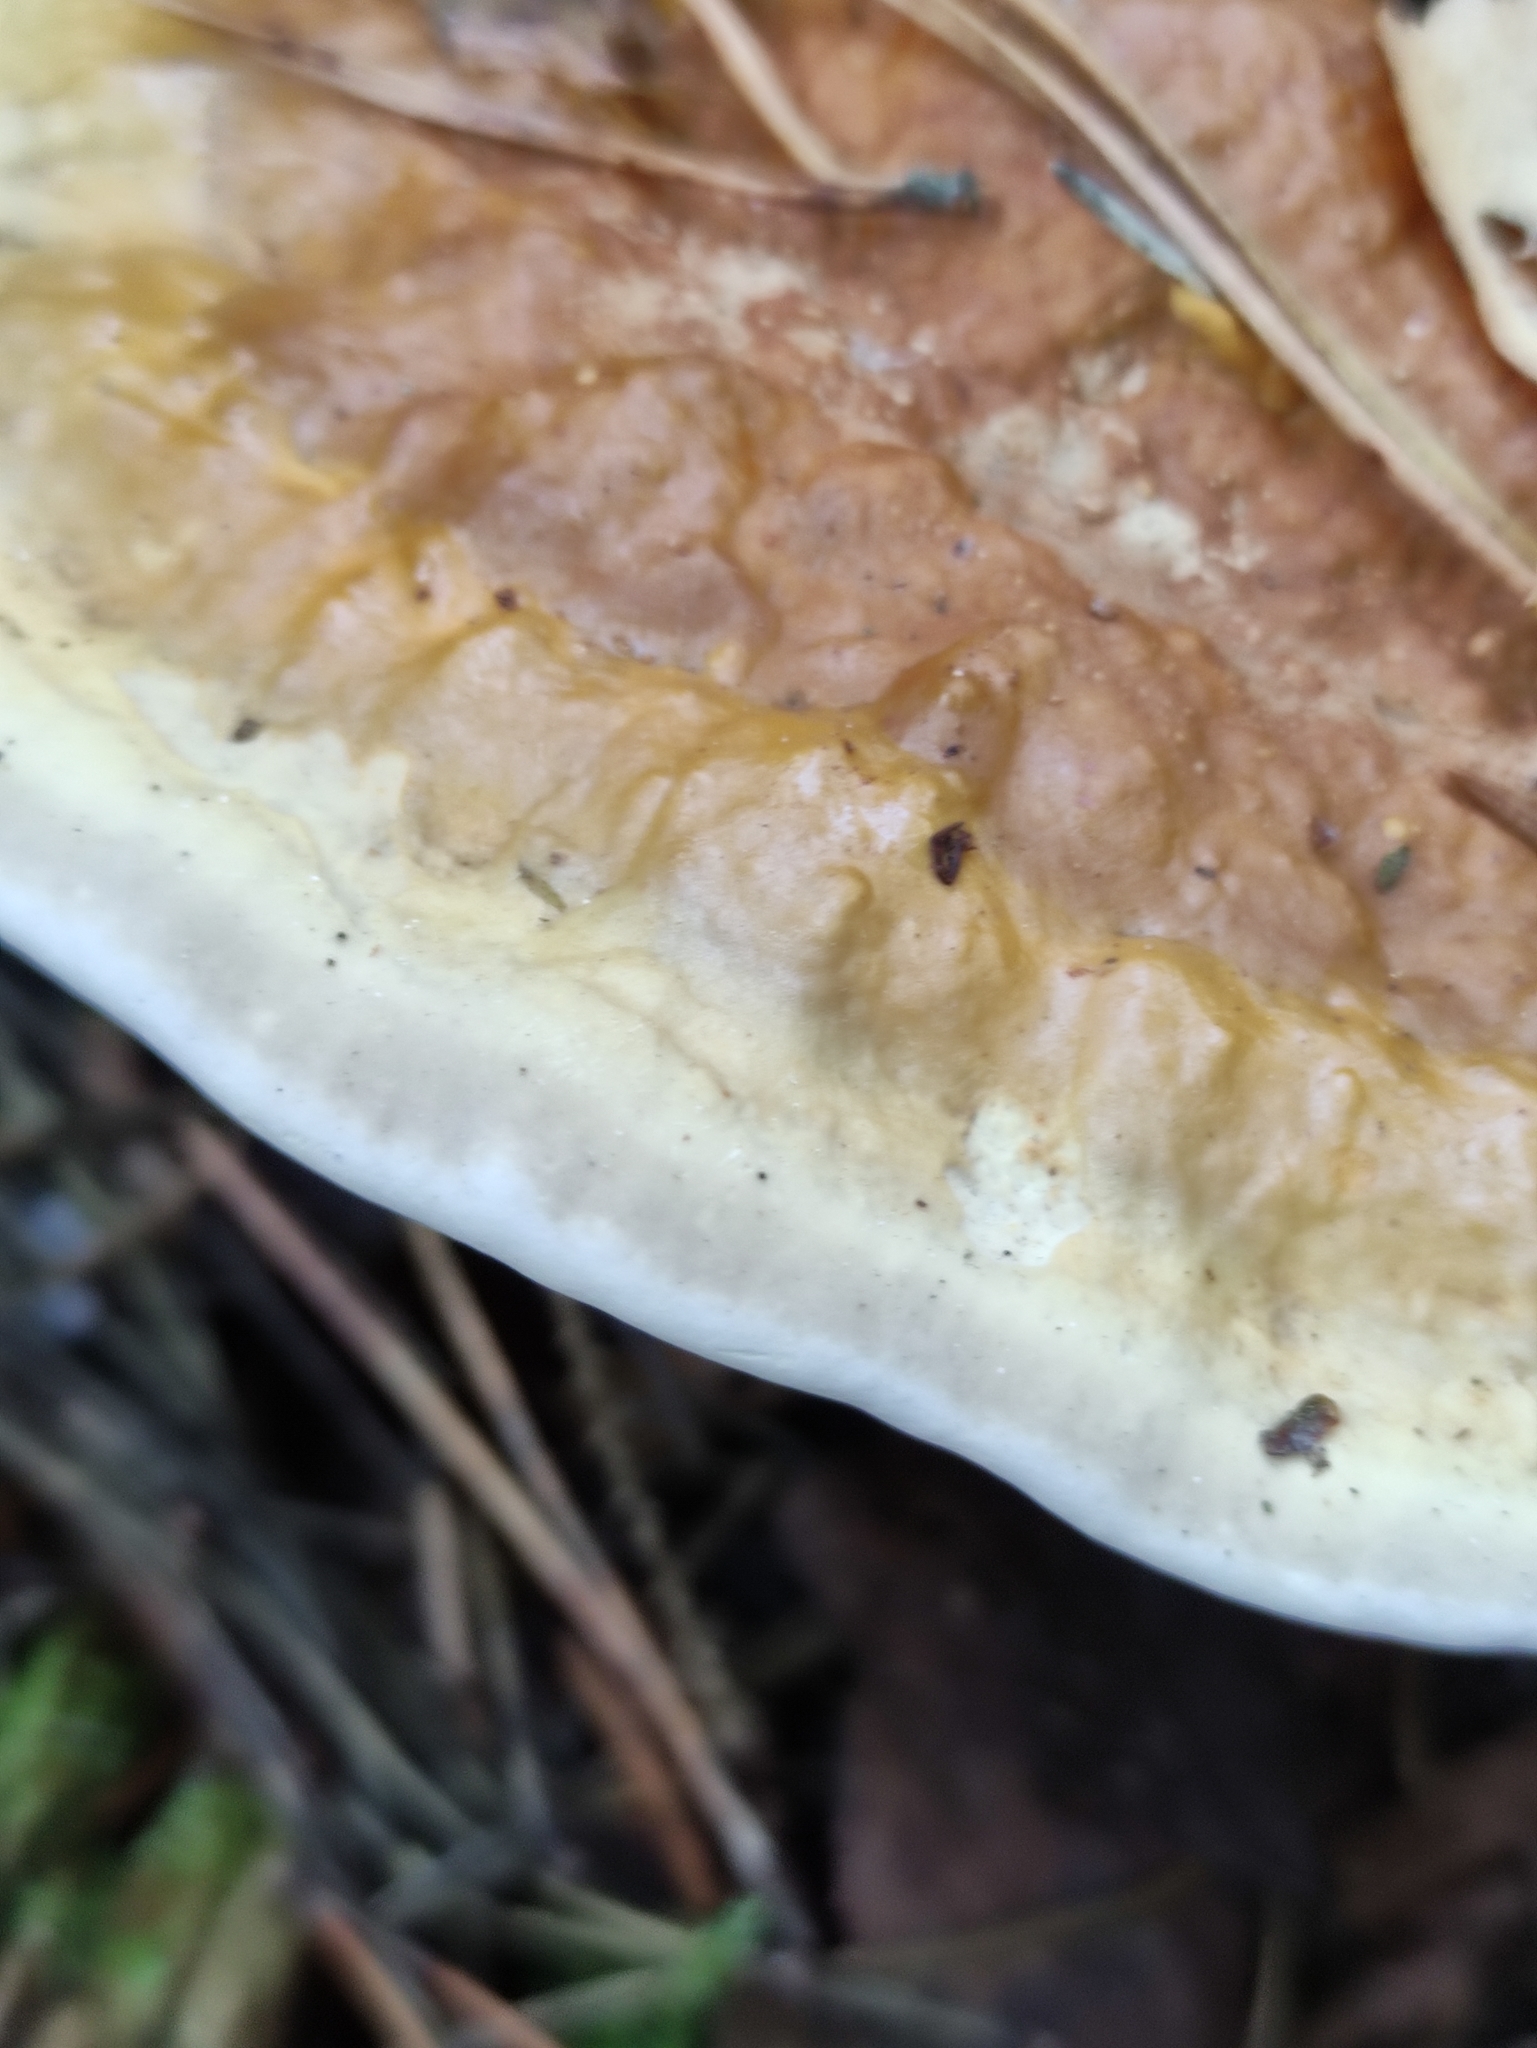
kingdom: Fungi
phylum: Basidiomycota
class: Agaricomycetes
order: Polyporales
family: Fomitopsidaceae
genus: Fomitopsis
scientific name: Fomitopsis pinicola
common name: Red-belted bracket
